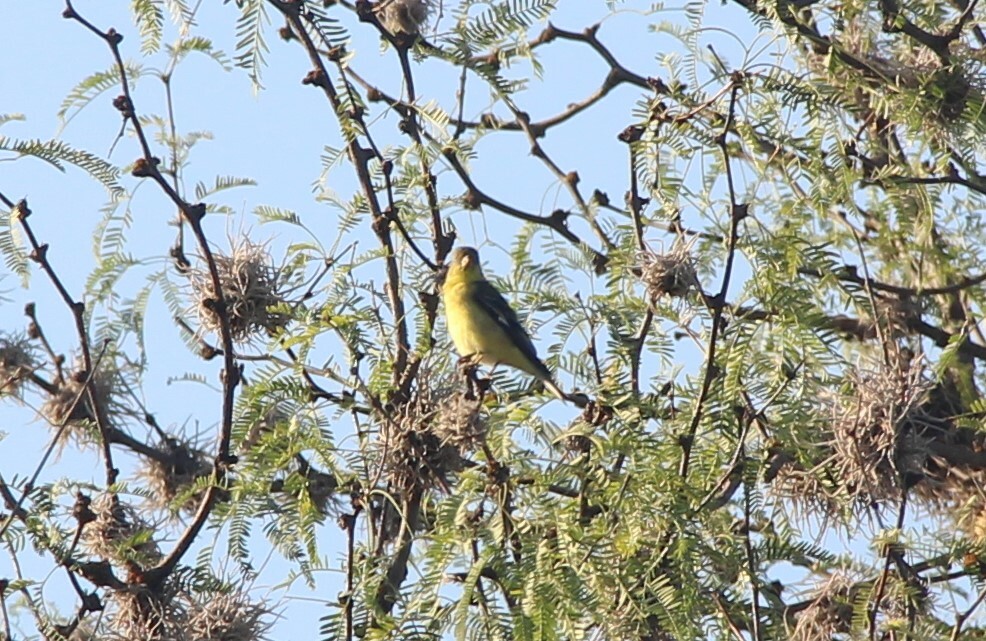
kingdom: Animalia
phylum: Chordata
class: Aves
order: Passeriformes
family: Fringillidae
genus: Spinus
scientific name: Spinus psaltria
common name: Lesser goldfinch
